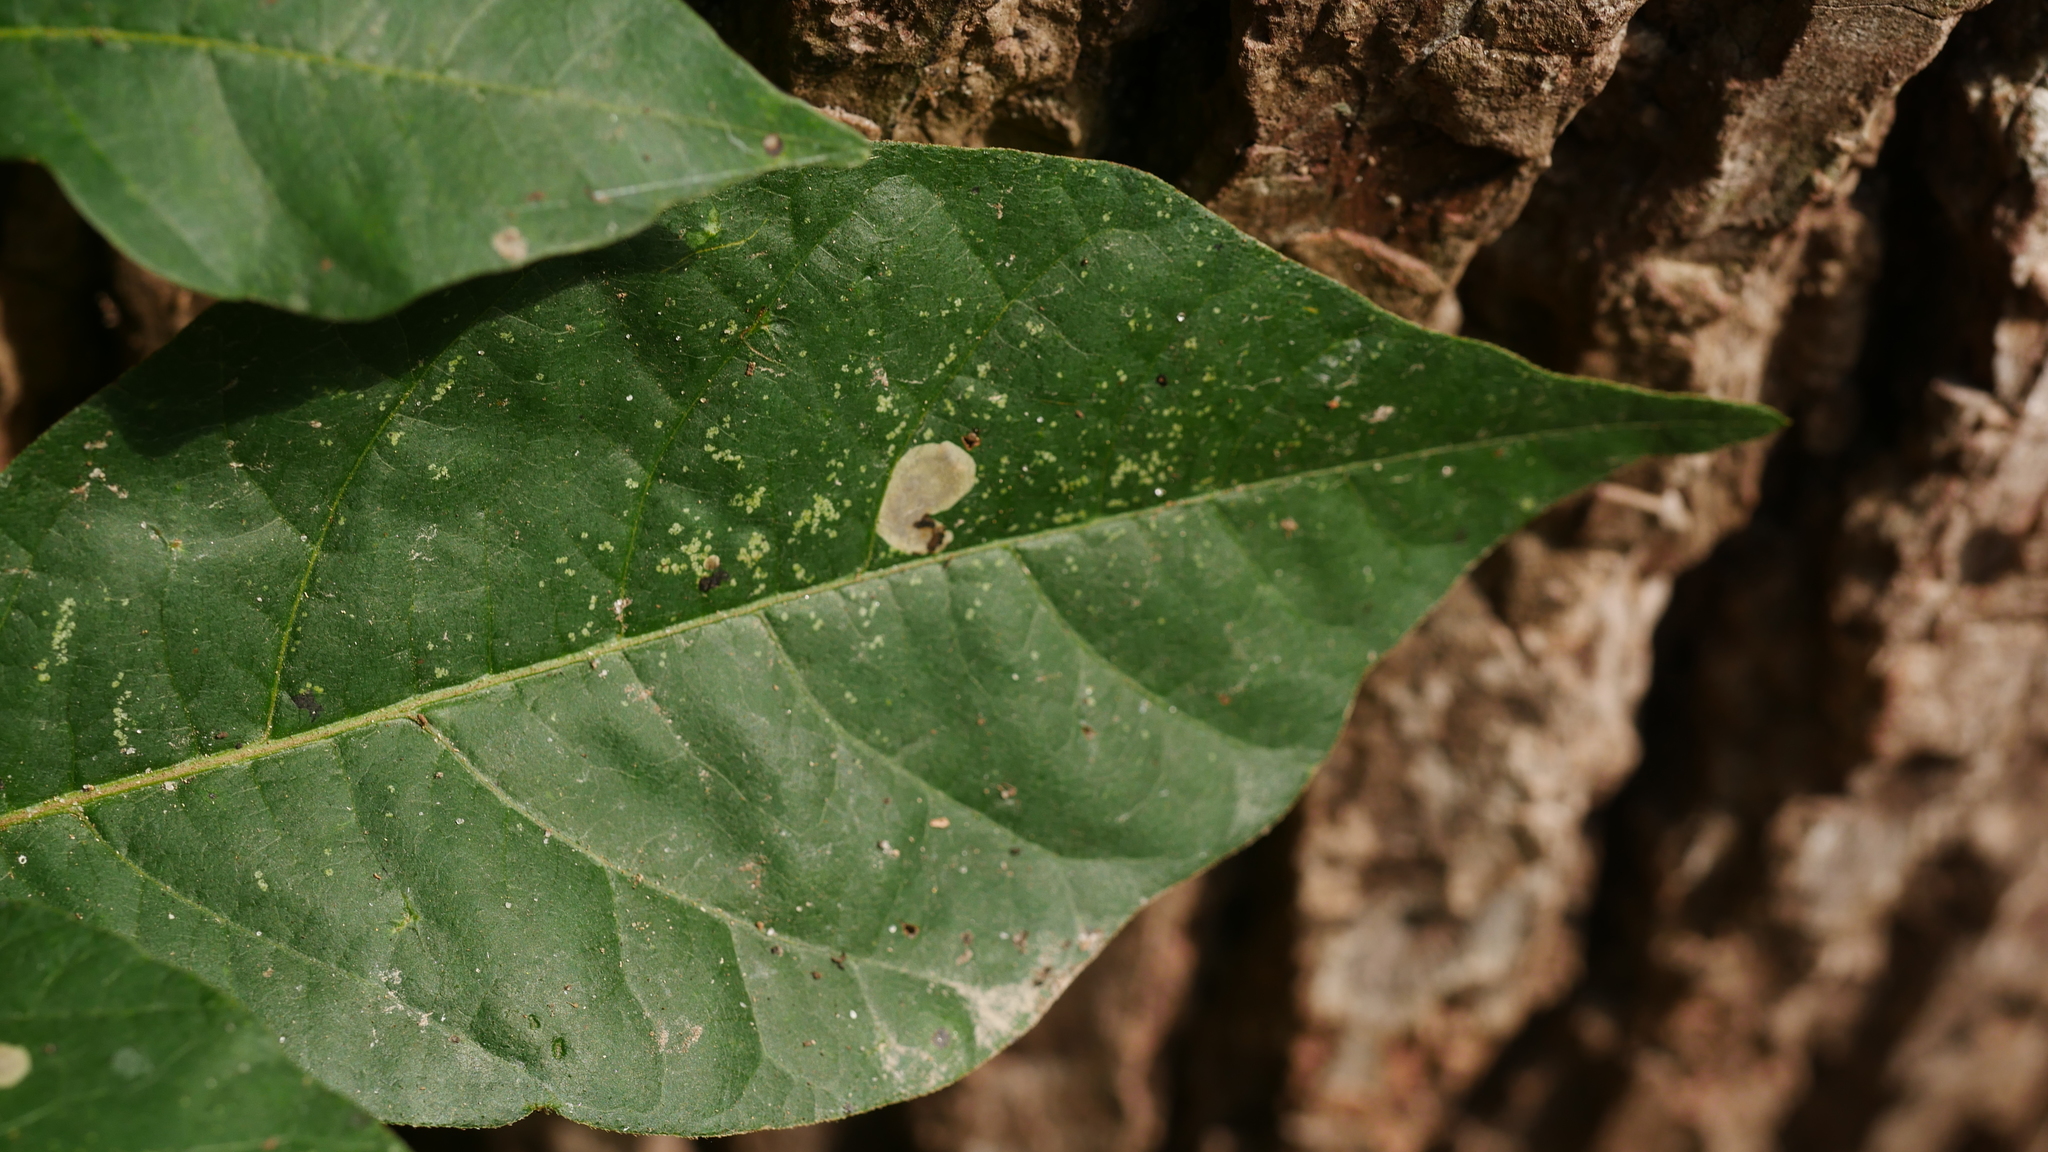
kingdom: Animalia
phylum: Arthropoda
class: Insecta
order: Lepidoptera
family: Gracillariidae
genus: Cameraria
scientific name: Cameraria guttifinitella
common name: Poison ivy leaf-miner moth
